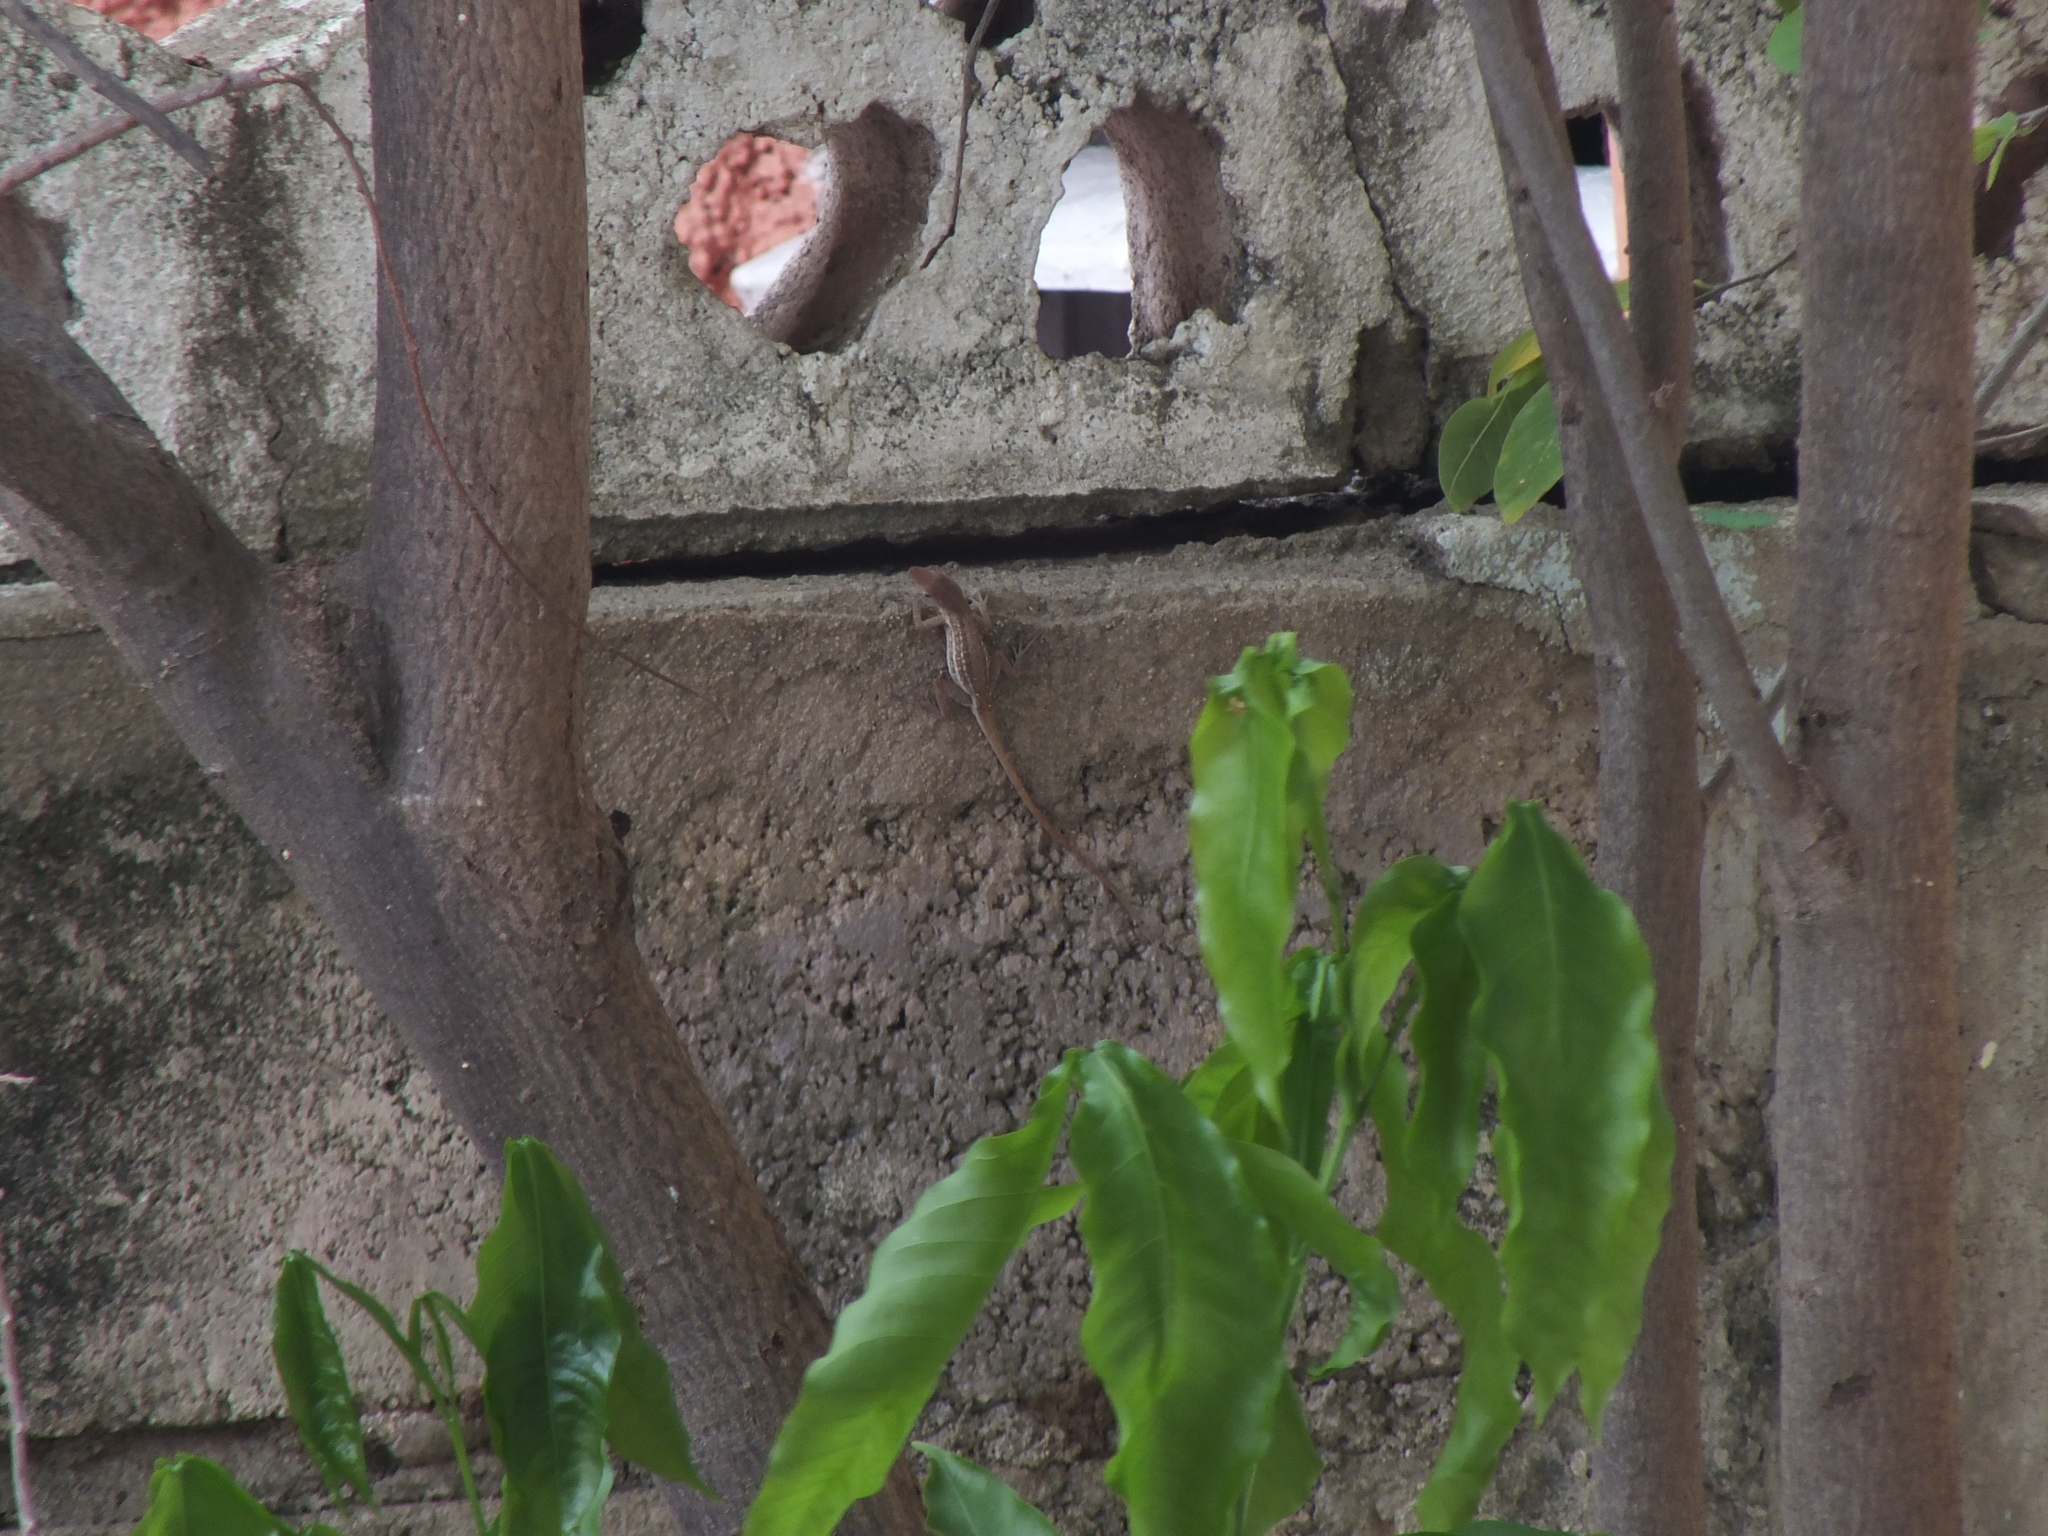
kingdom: Animalia
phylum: Chordata
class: Squamata
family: Dactyloidae
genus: Anolis
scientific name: Anolis lineatopus
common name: Stripefoot anole
